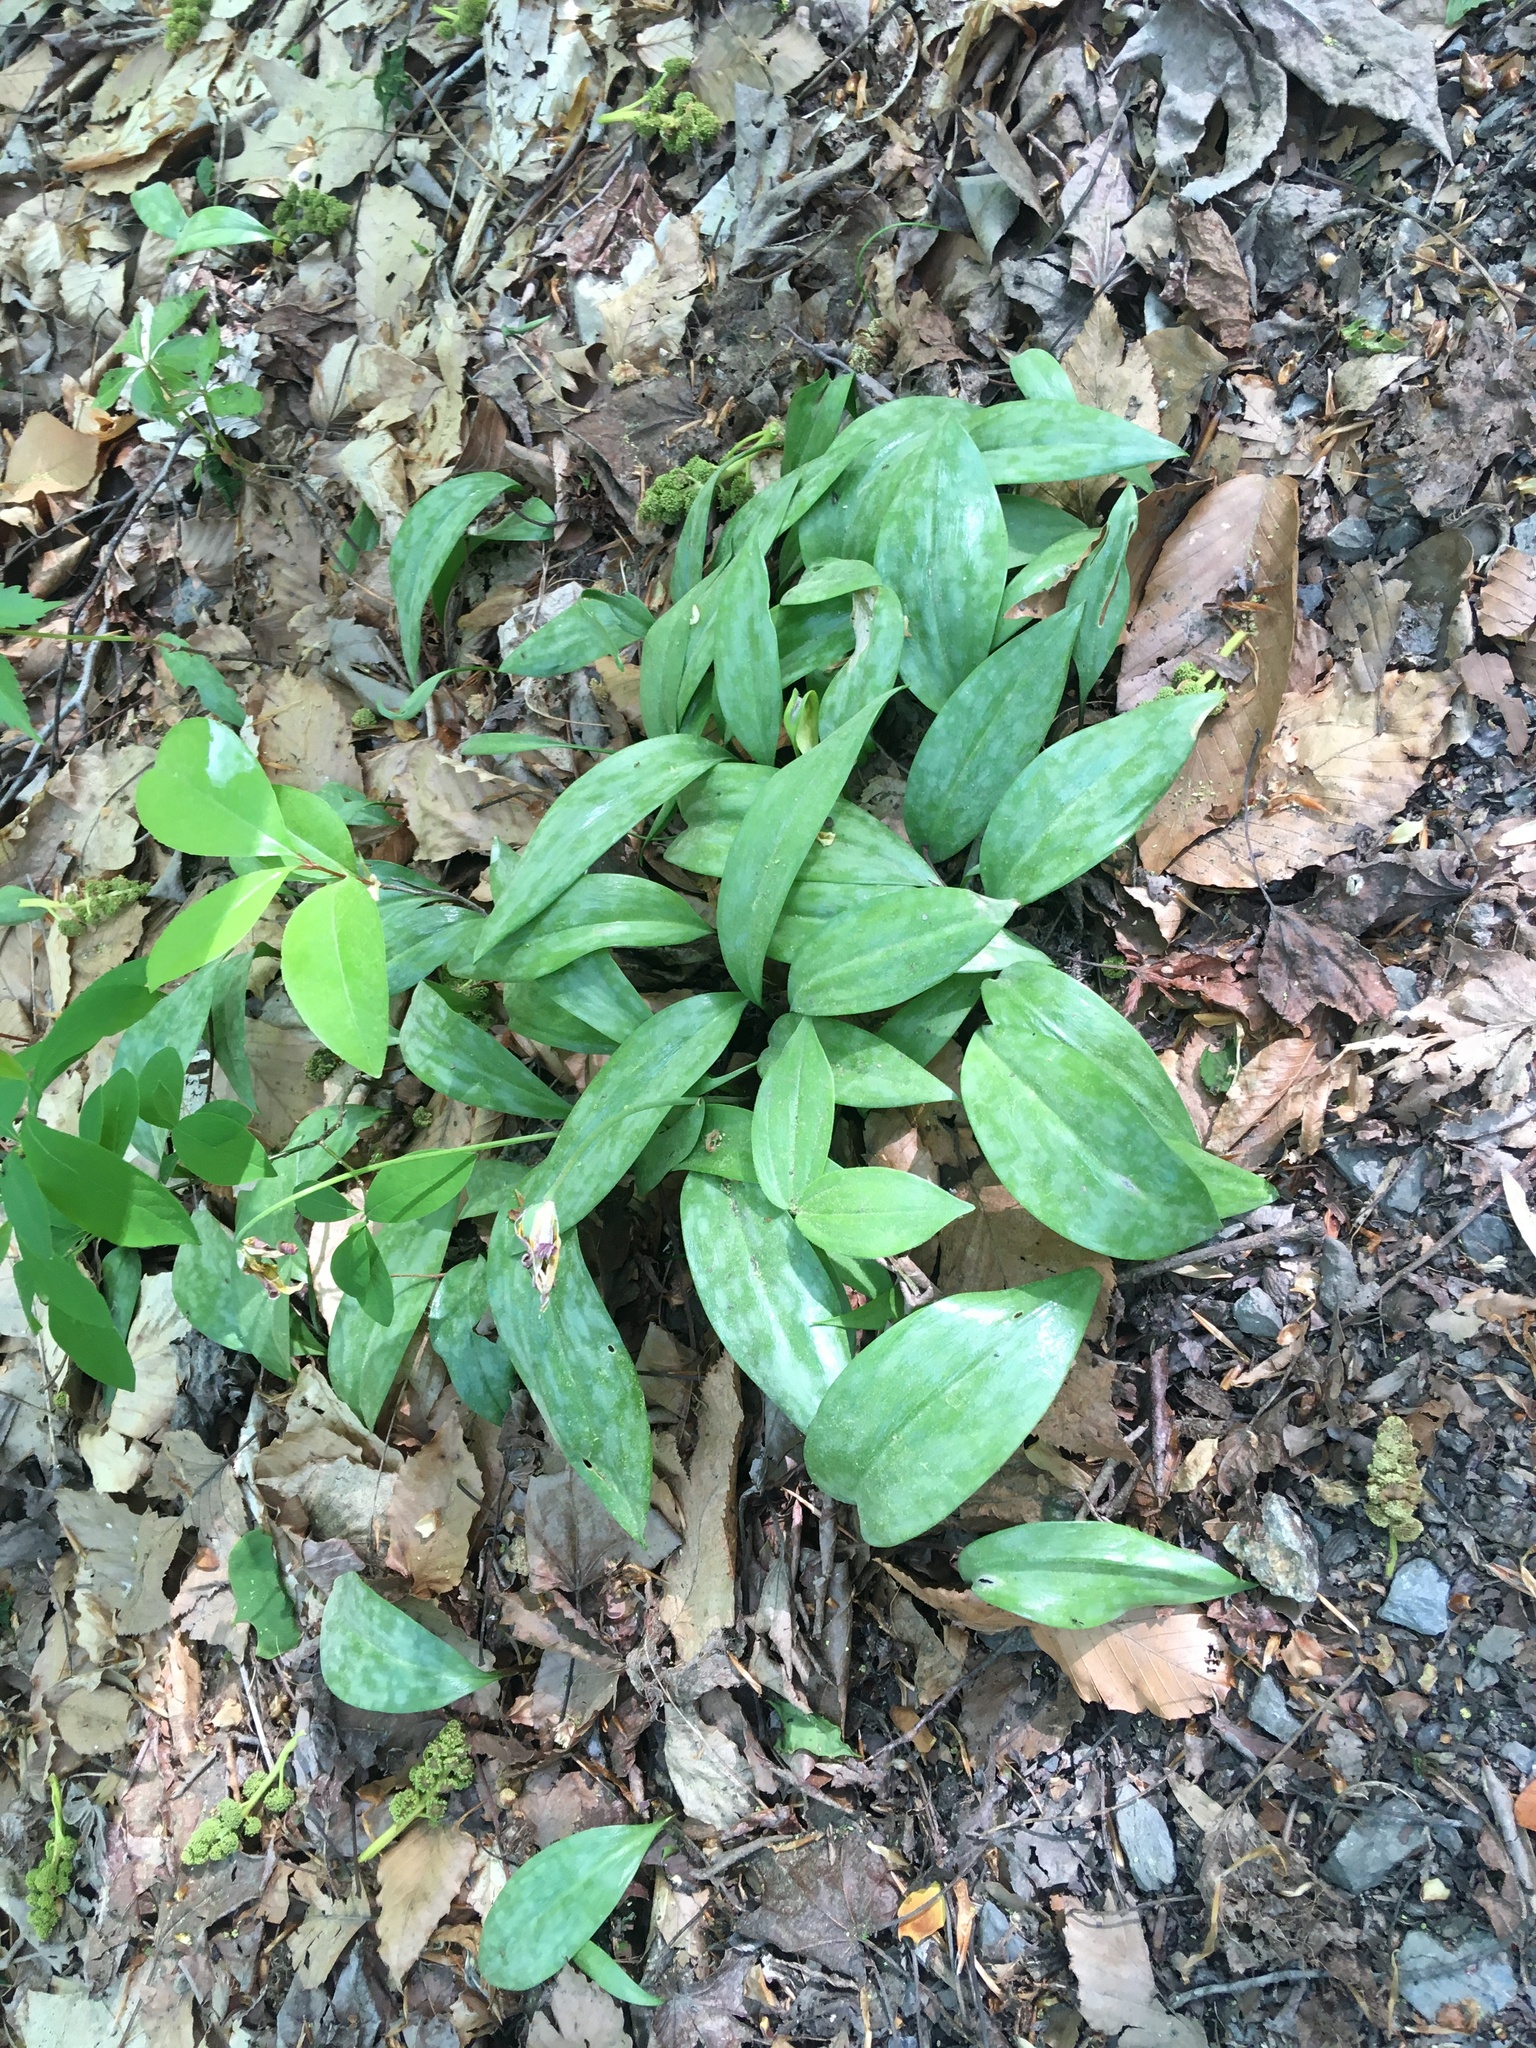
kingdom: Plantae
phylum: Tracheophyta
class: Liliopsida
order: Liliales
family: Liliaceae
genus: Erythronium
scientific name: Erythronium americanum
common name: Yellow adder's-tongue
